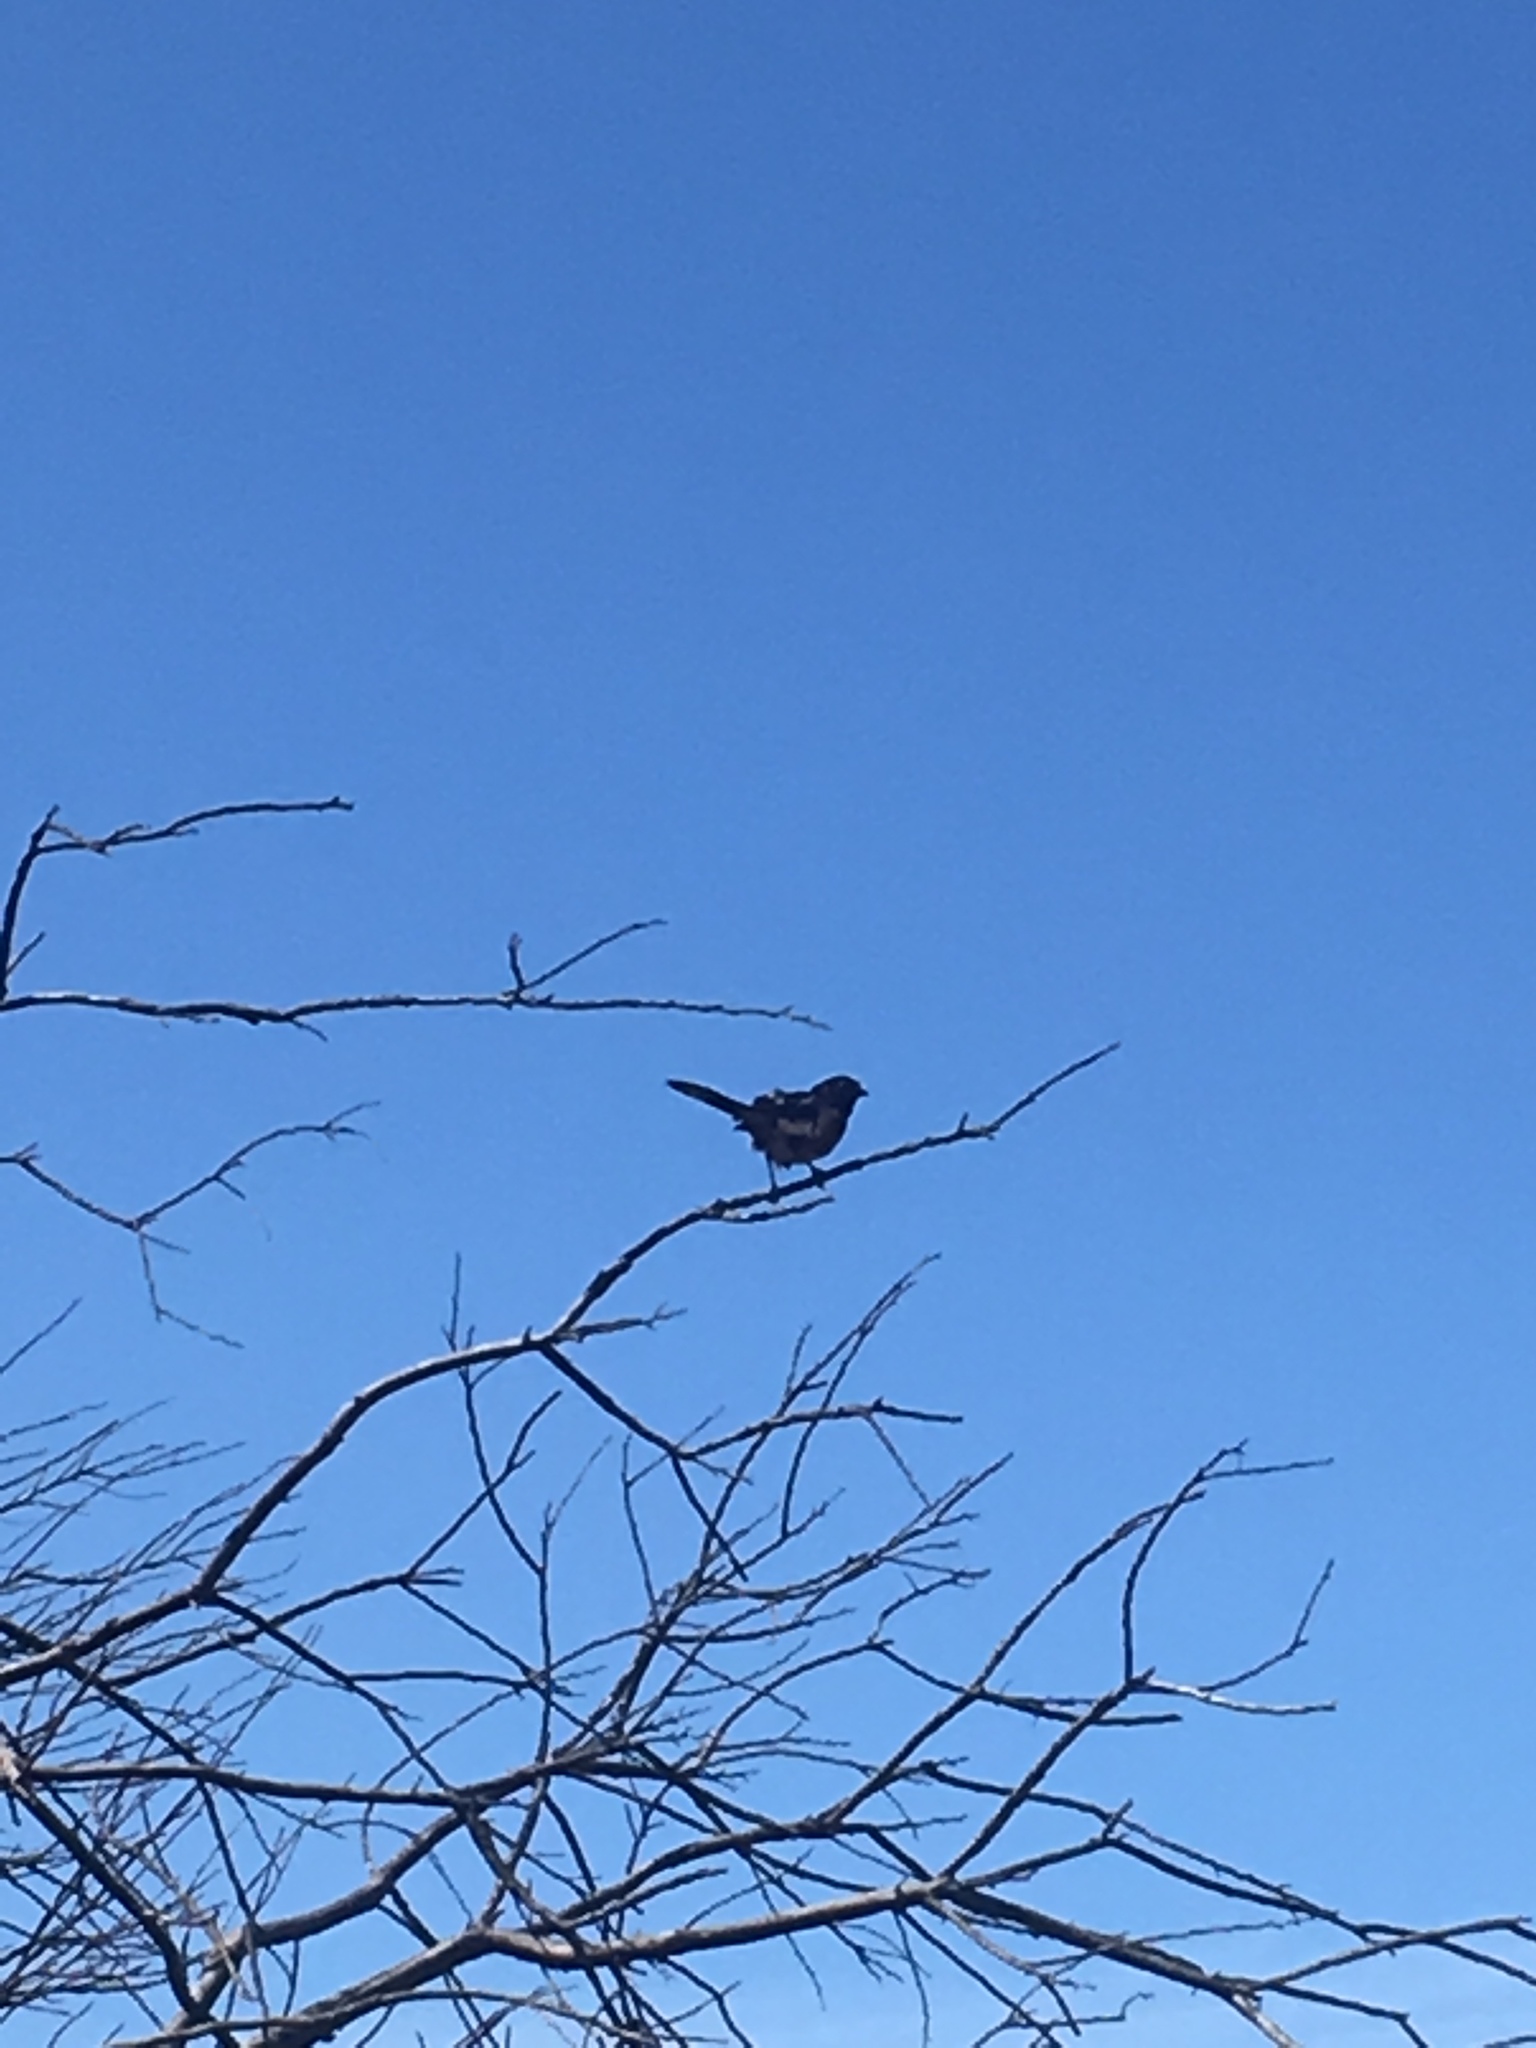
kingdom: Animalia
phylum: Chordata
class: Aves
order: Passeriformes
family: Passerellidae
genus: Pipilo
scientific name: Pipilo maculatus
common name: Spotted towhee
